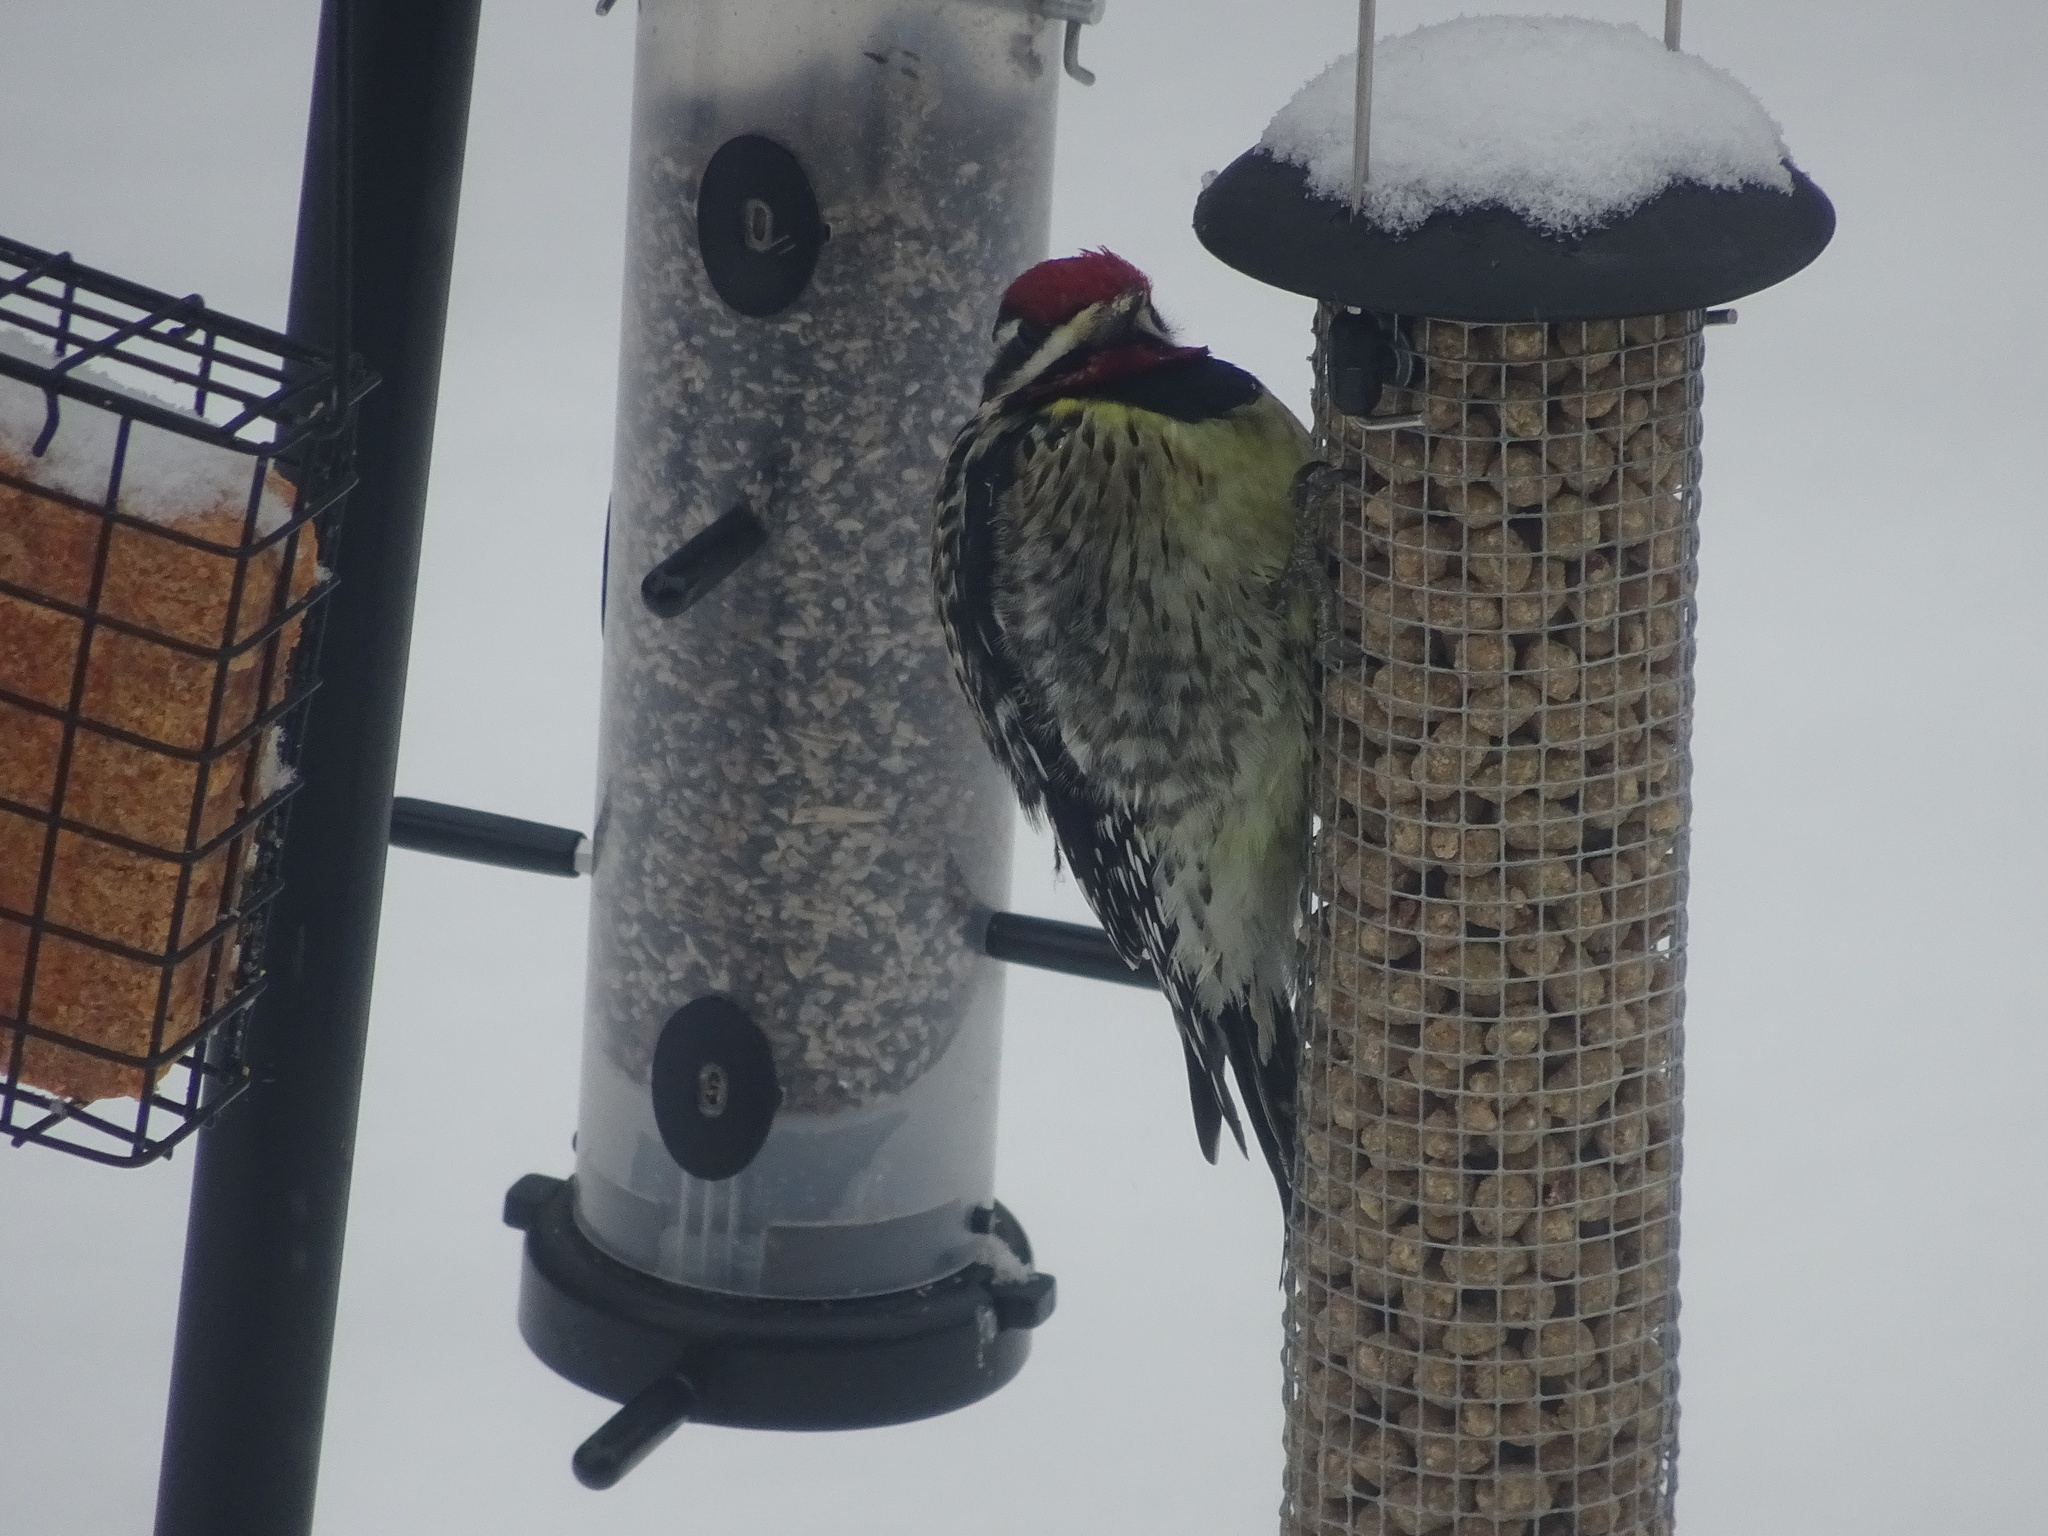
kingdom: Animalia
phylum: Chordata
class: Aves
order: Piciformes
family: Picidae
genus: Sphyrapicus
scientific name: Sphyrapicus varius
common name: Yellow-bellied sapsucker
